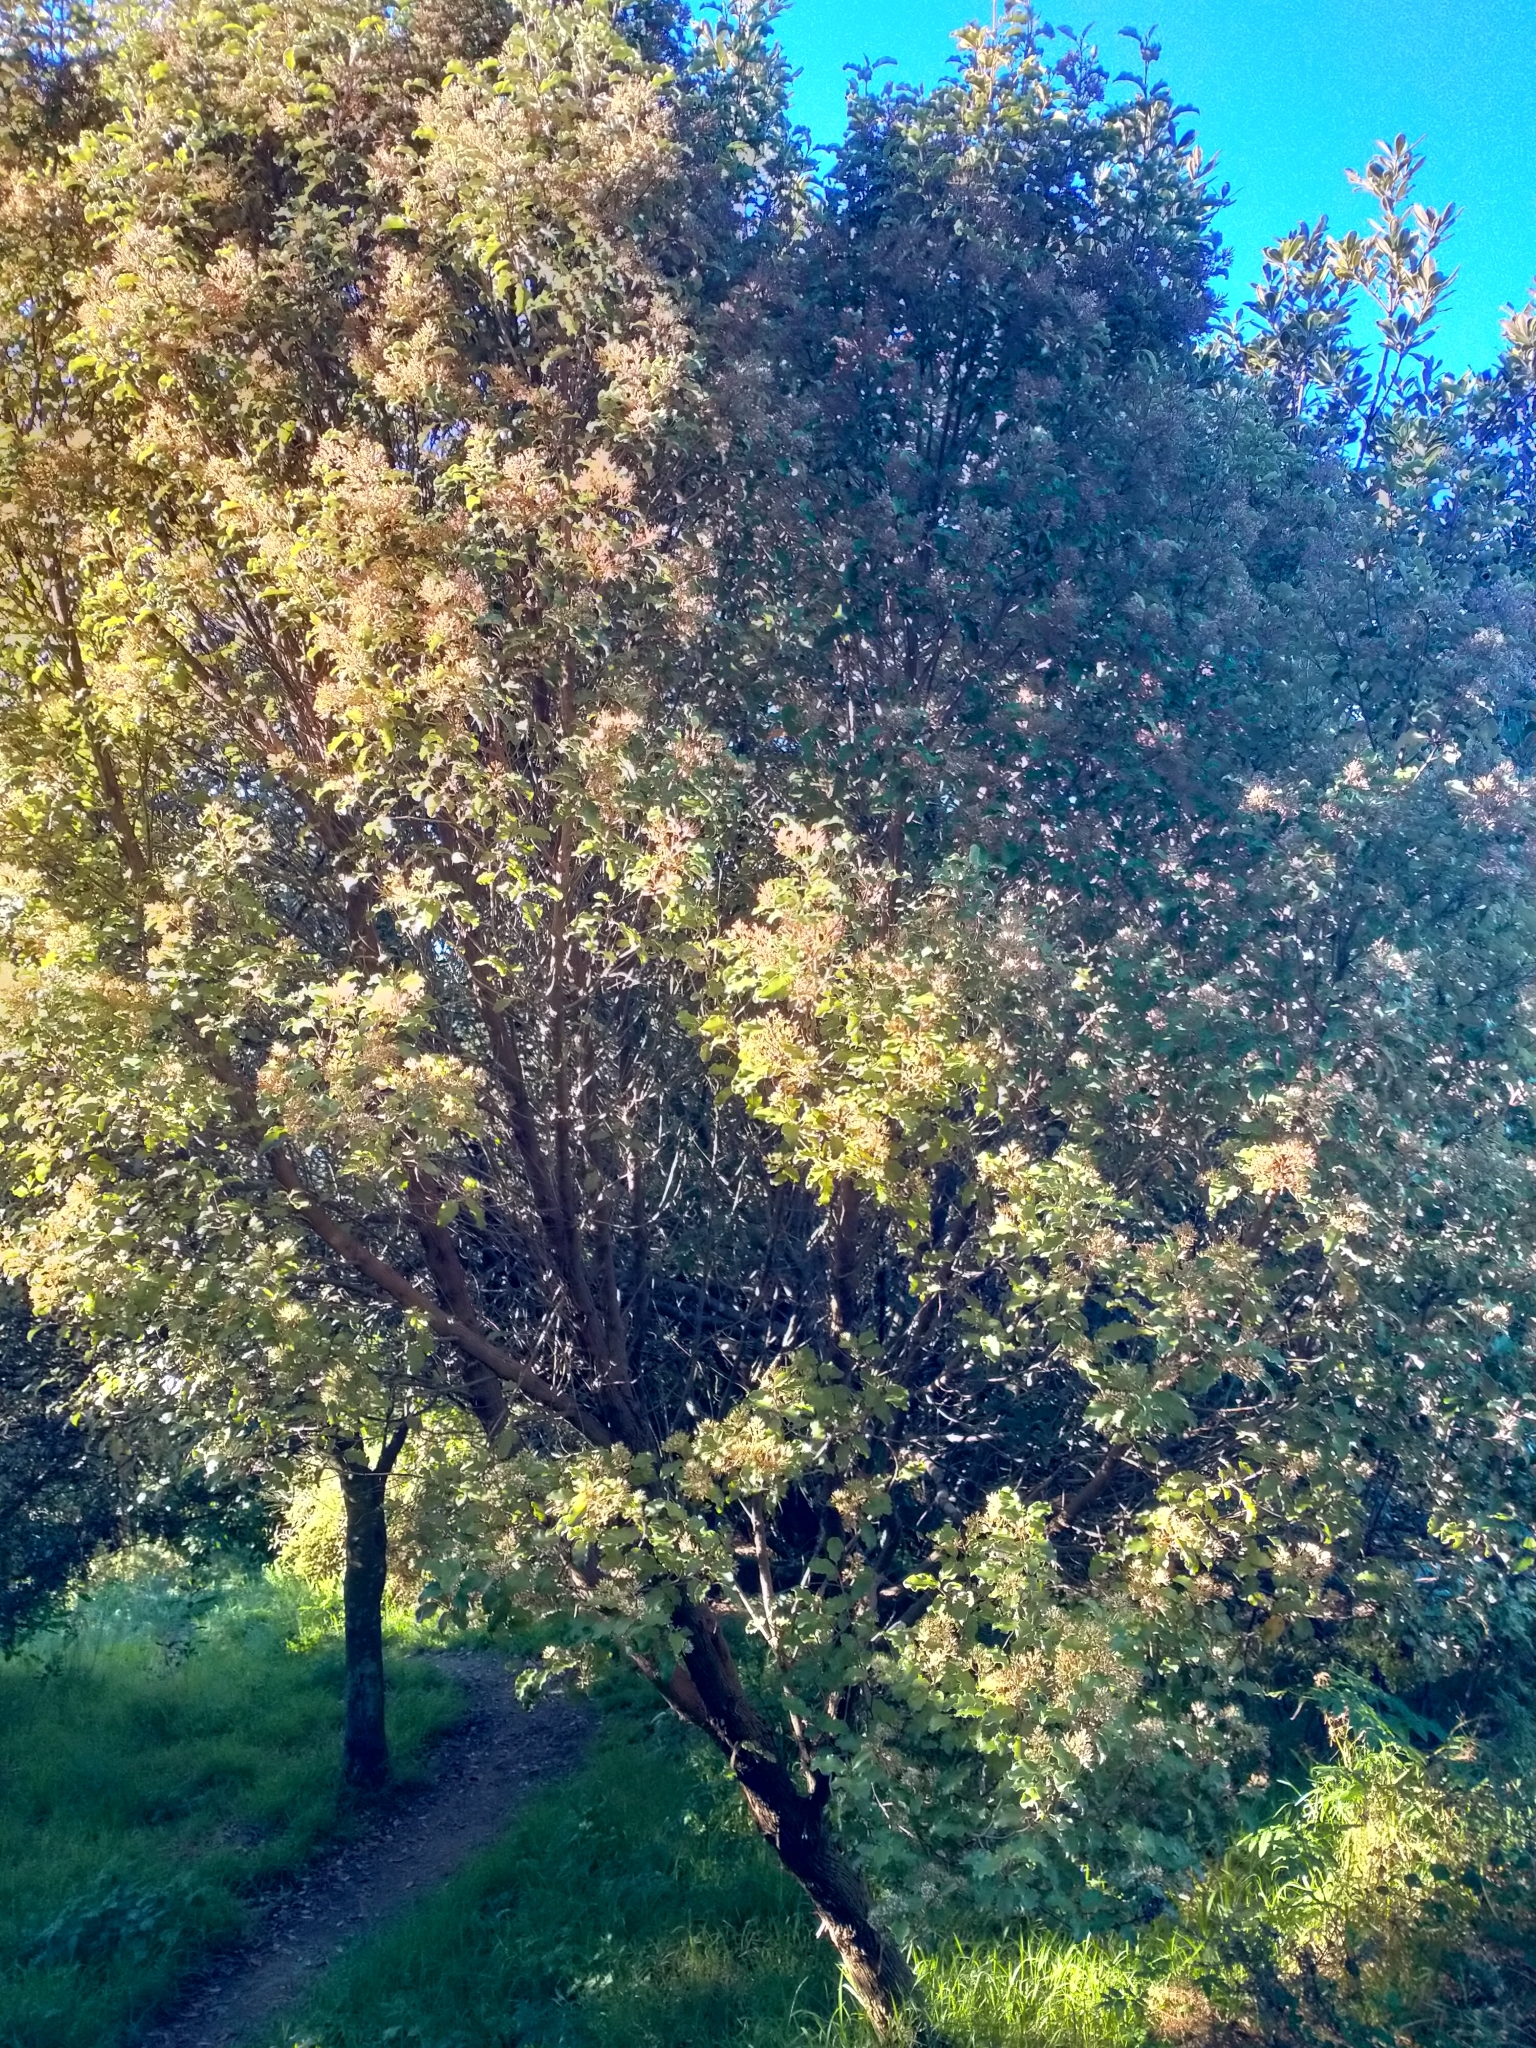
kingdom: Plantae
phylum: Tracheophyta
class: Magnoliopsida
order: Asterales
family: Asteraceae
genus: Olearia
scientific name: Olearia paniculata
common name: Akiraho
